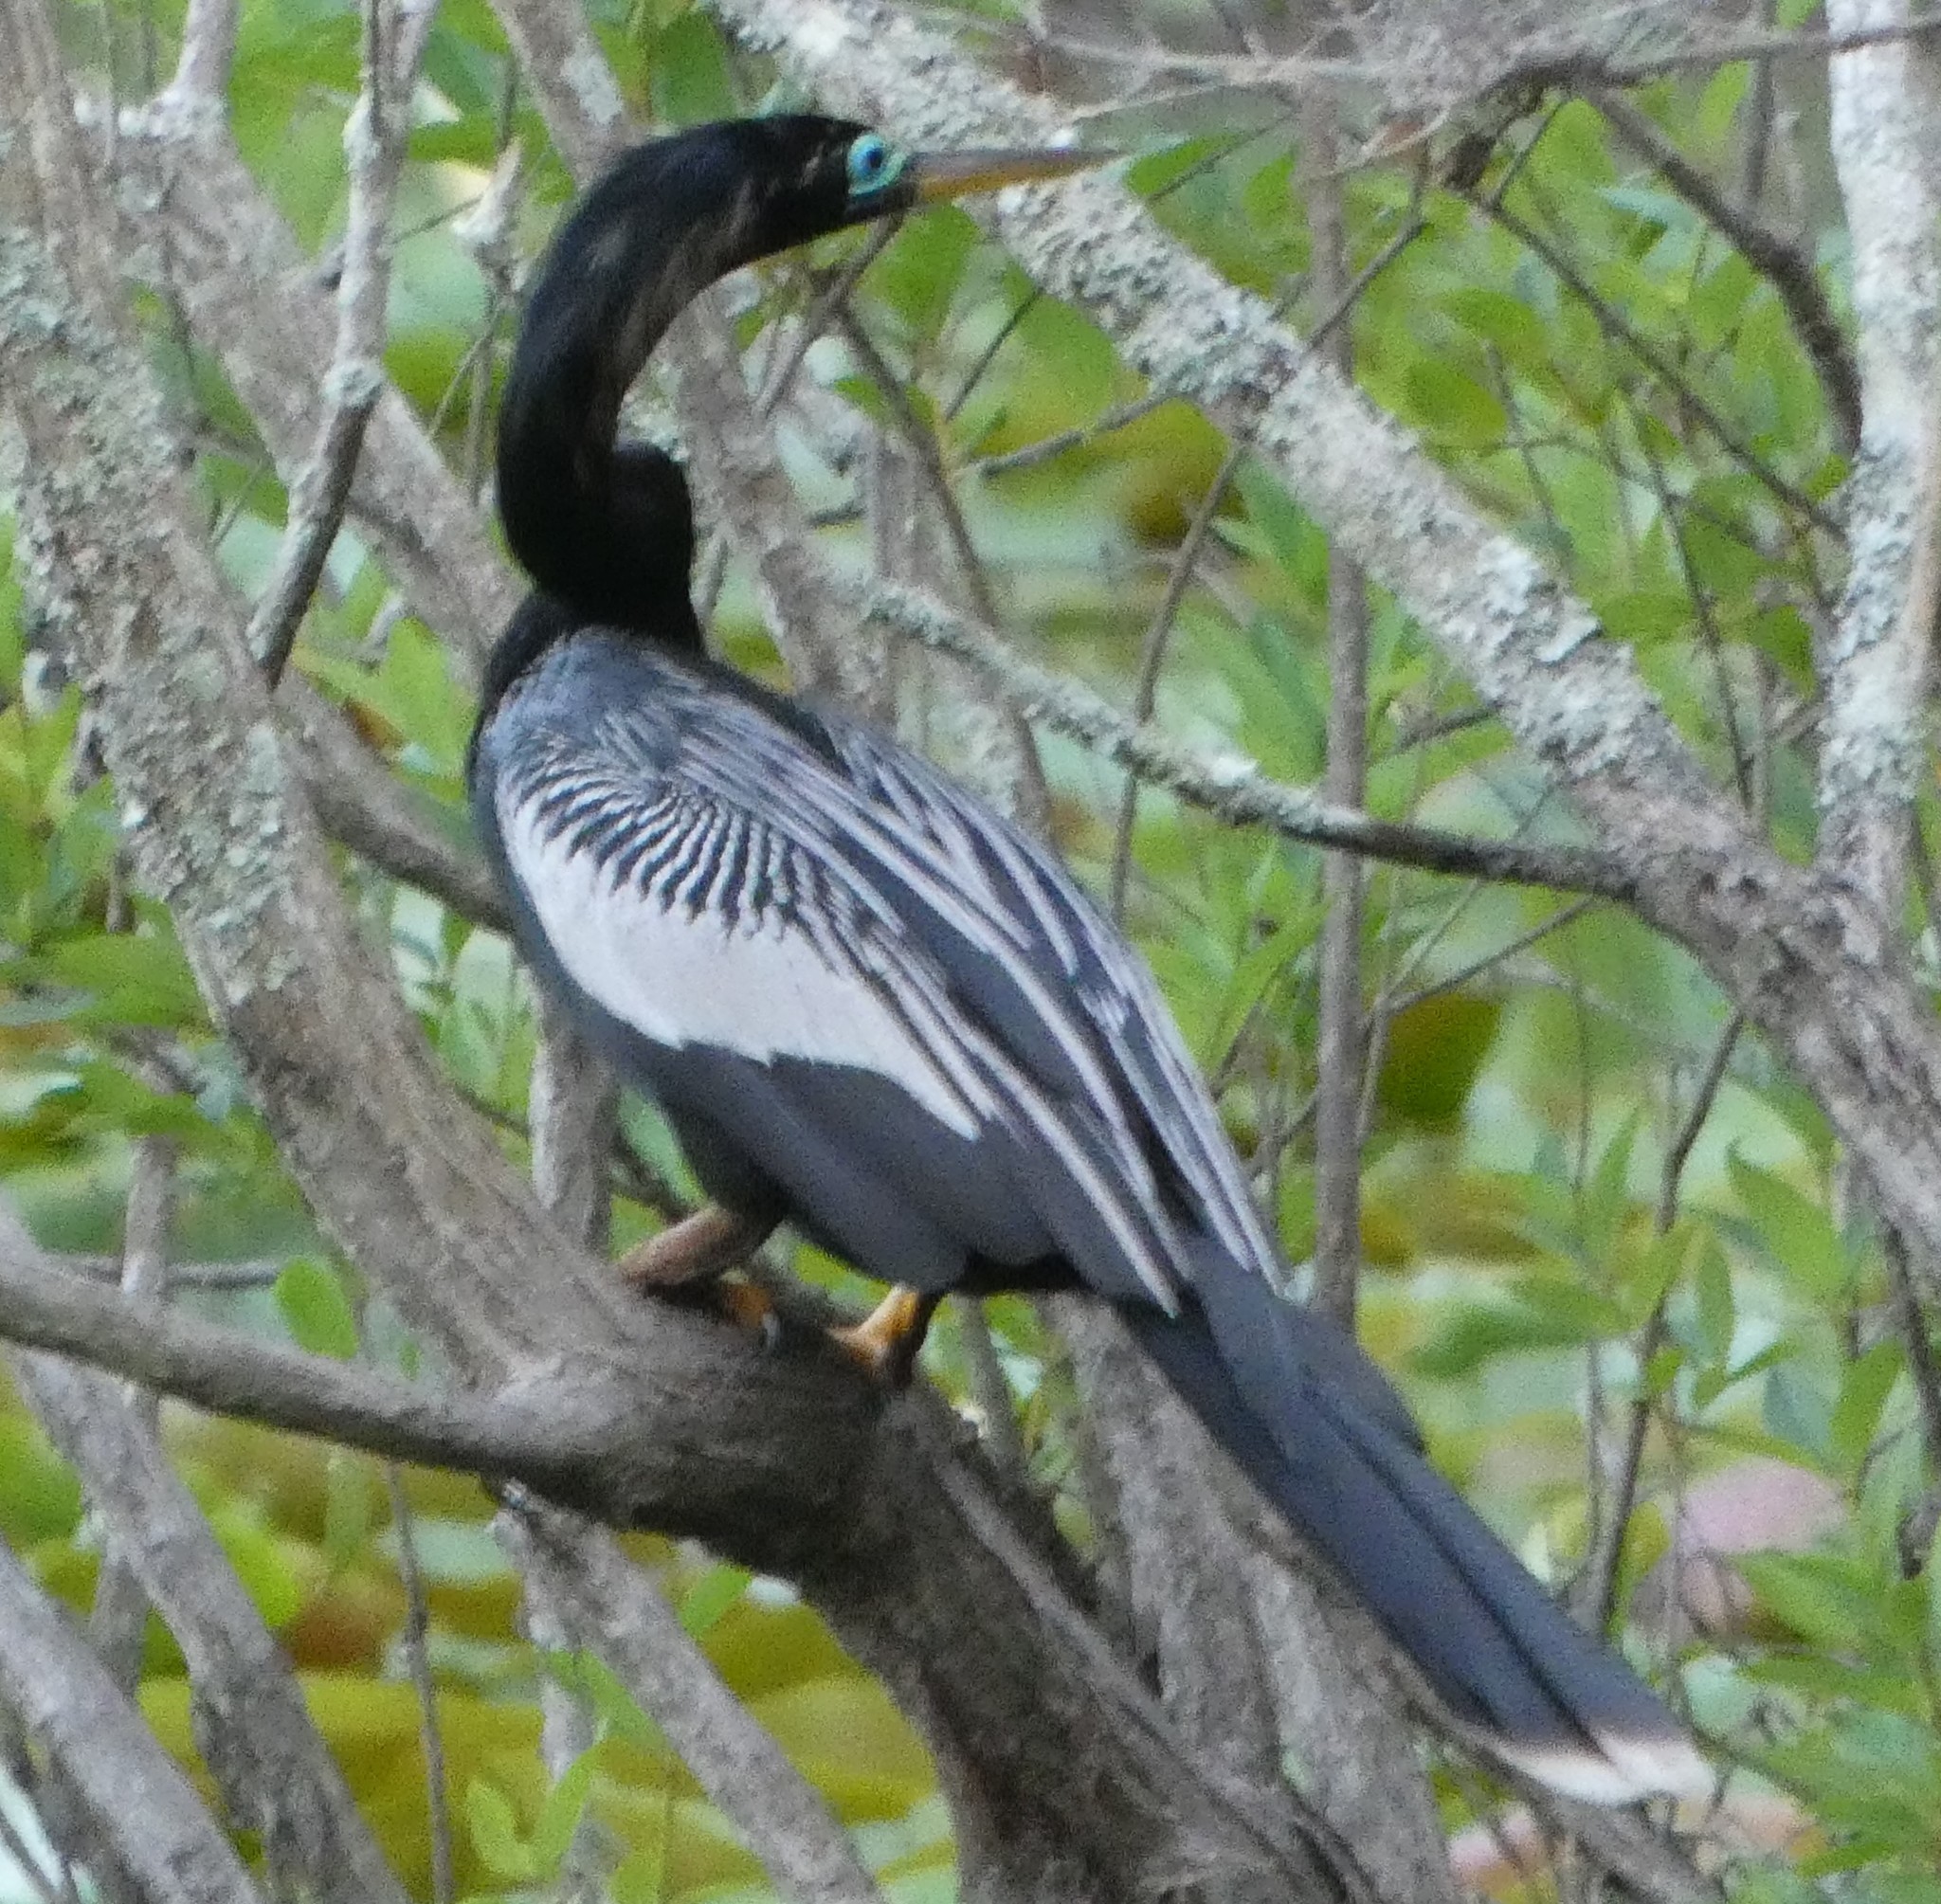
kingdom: Animalia
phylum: Chordata
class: Aves
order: Suliformes
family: Anhingidae
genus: Anhinga
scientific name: Anhinga anhinga
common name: Anhinga
